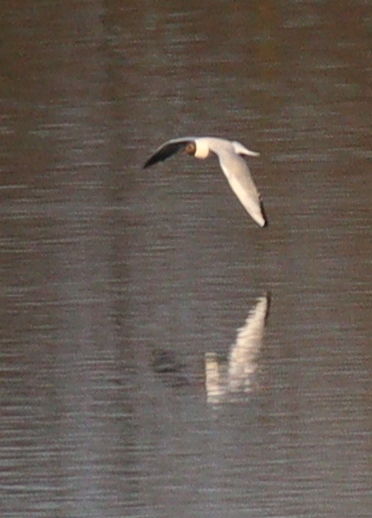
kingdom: Animalia
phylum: Chordata
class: Aves
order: Charadriiformes
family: Laridae
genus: Chroicocephalus
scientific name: Chroicocephalus ridibundus
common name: Black-headed gull
